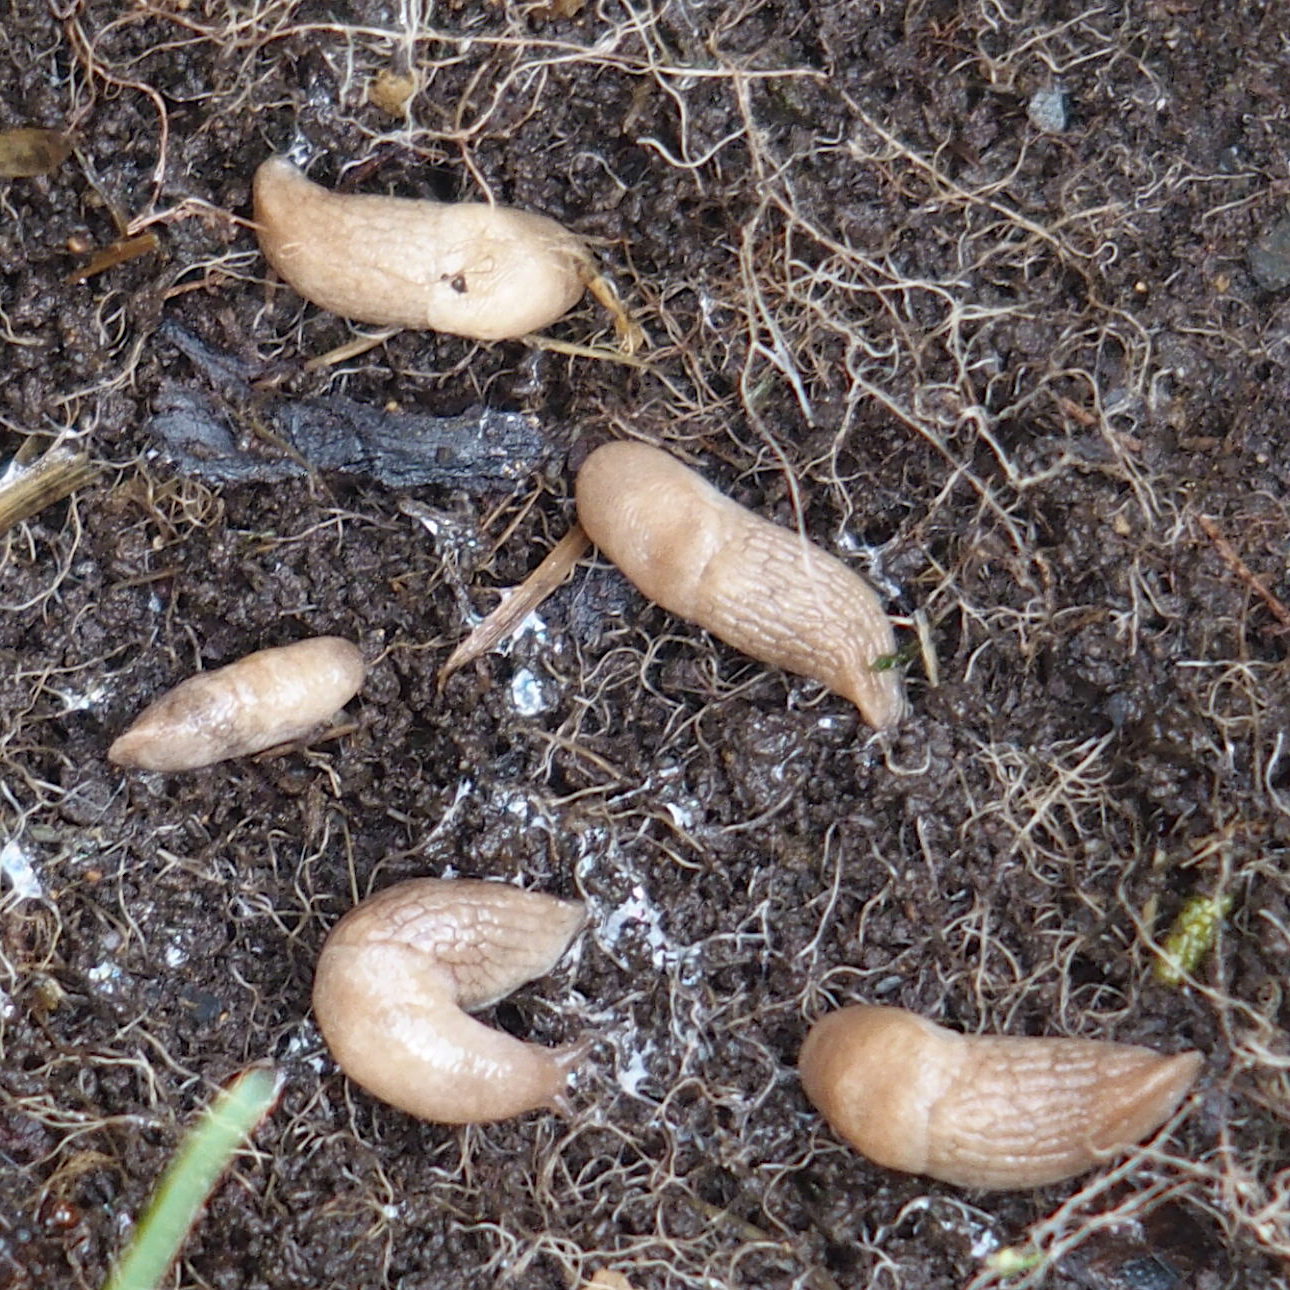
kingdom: Animalia
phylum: Mollusca
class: Gastropoda
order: Stylommatophora
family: Agriolimacidae
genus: Deroceras
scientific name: Deroceras reticulatum
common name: Gray field slug
